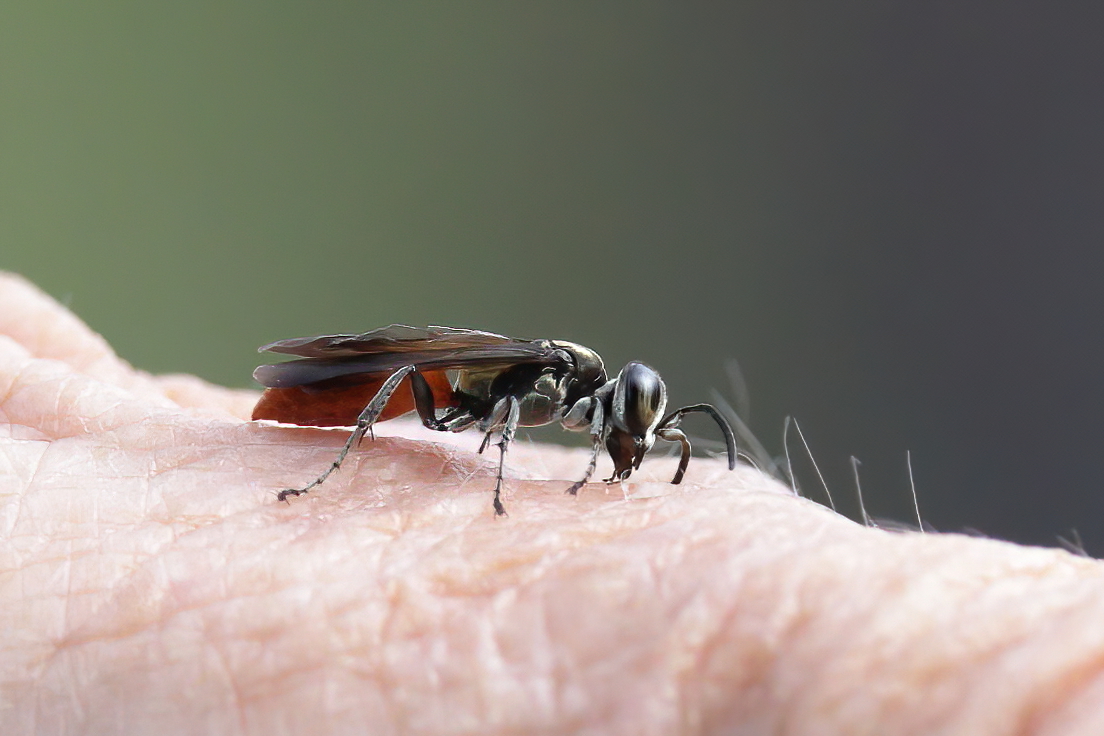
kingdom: Animalia
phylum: Arthropoda
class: Insecta
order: Hymenoptera
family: Crabronidae
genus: Larra
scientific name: Larra bicolor
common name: Wasp
